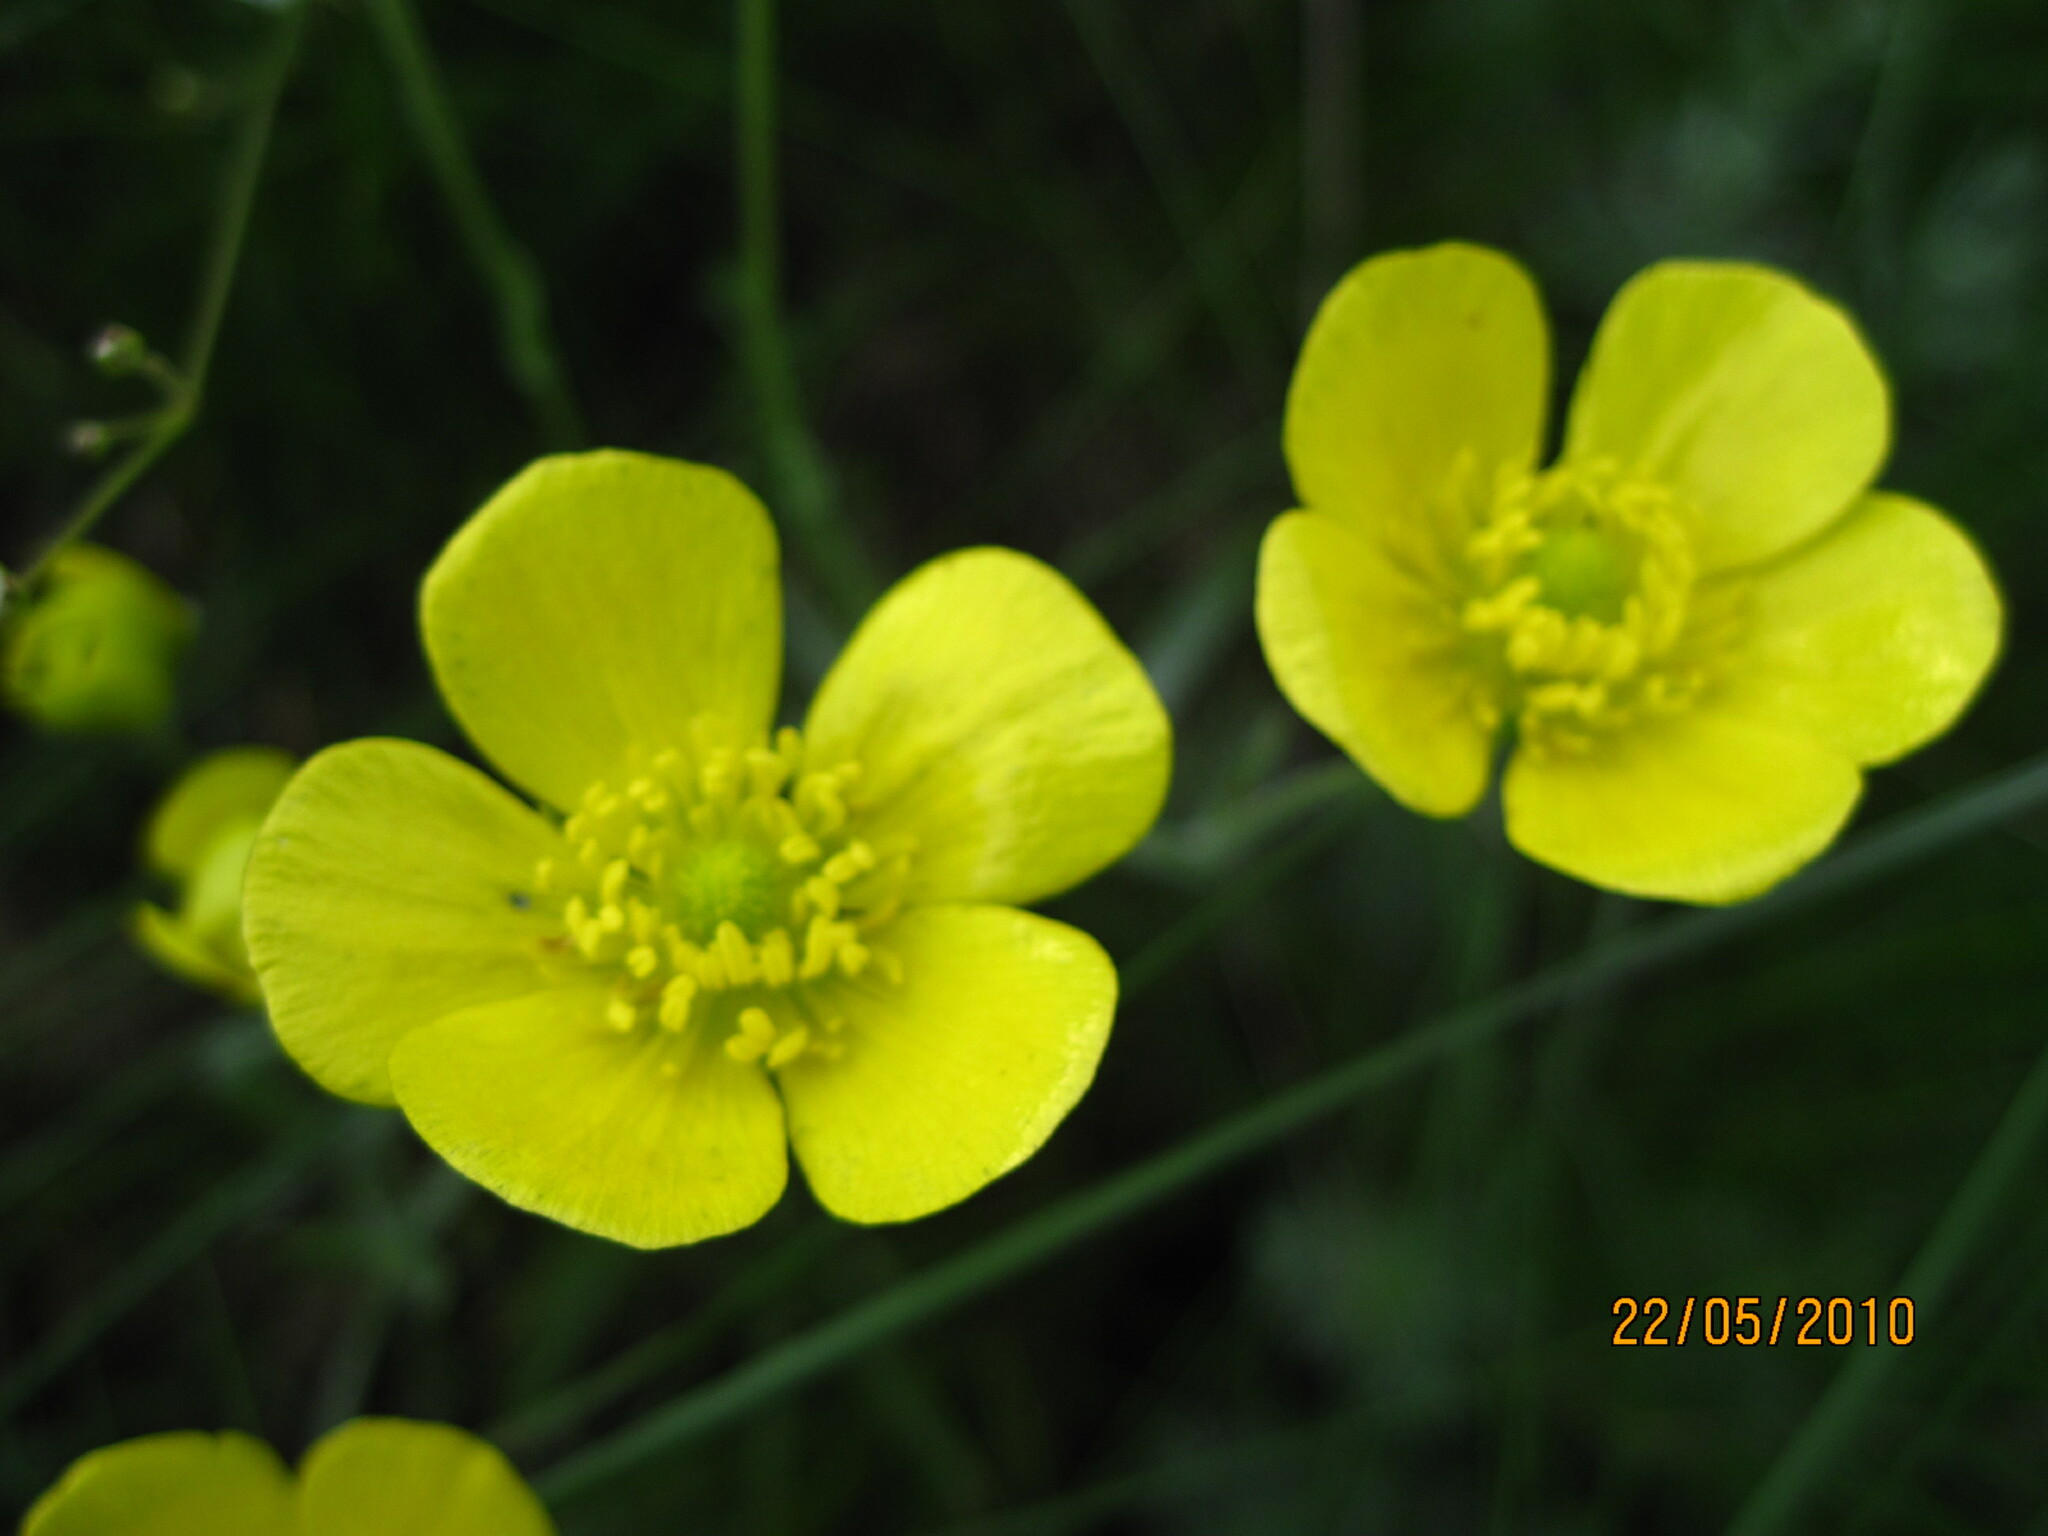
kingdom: Plantae
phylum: Tracheophyta
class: Magnoliopsida
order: Ranunculales
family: Ranunculaceae
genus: Ranunculus
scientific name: Ranunculus illyricus
